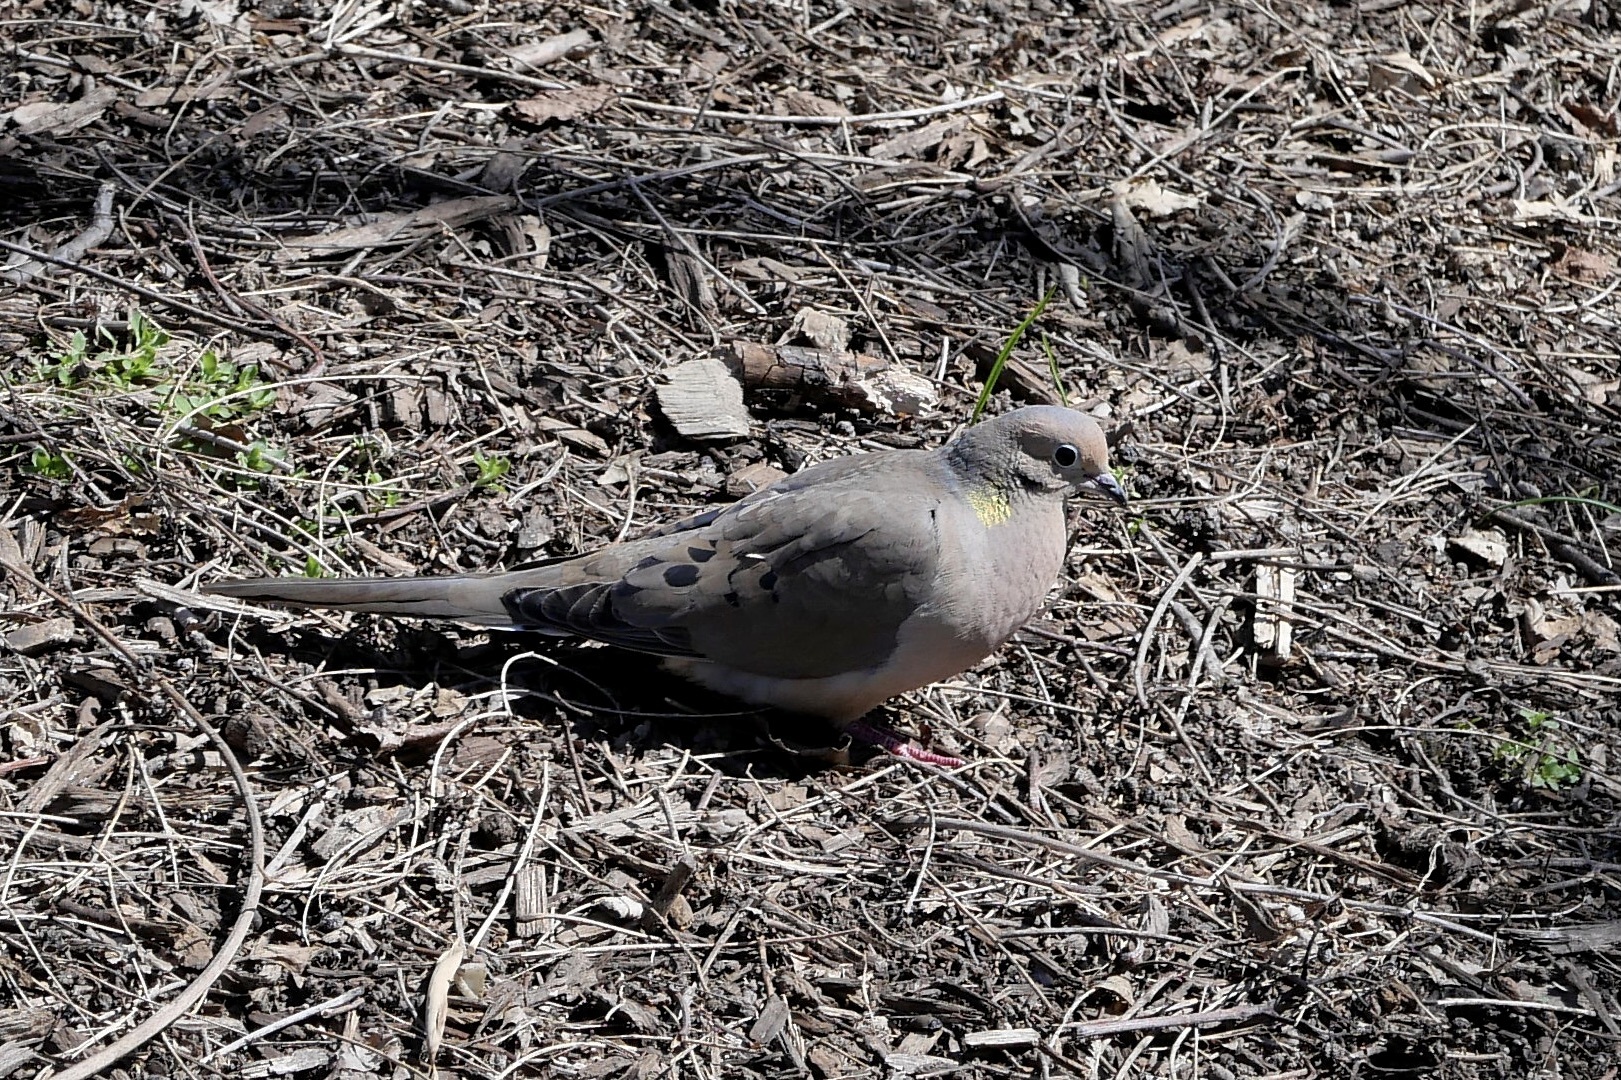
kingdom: Animalia
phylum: Chordata
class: Aves
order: Columbiformes
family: Columbidae
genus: Zenaida
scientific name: Zenaida macroura
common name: Mourning dove
